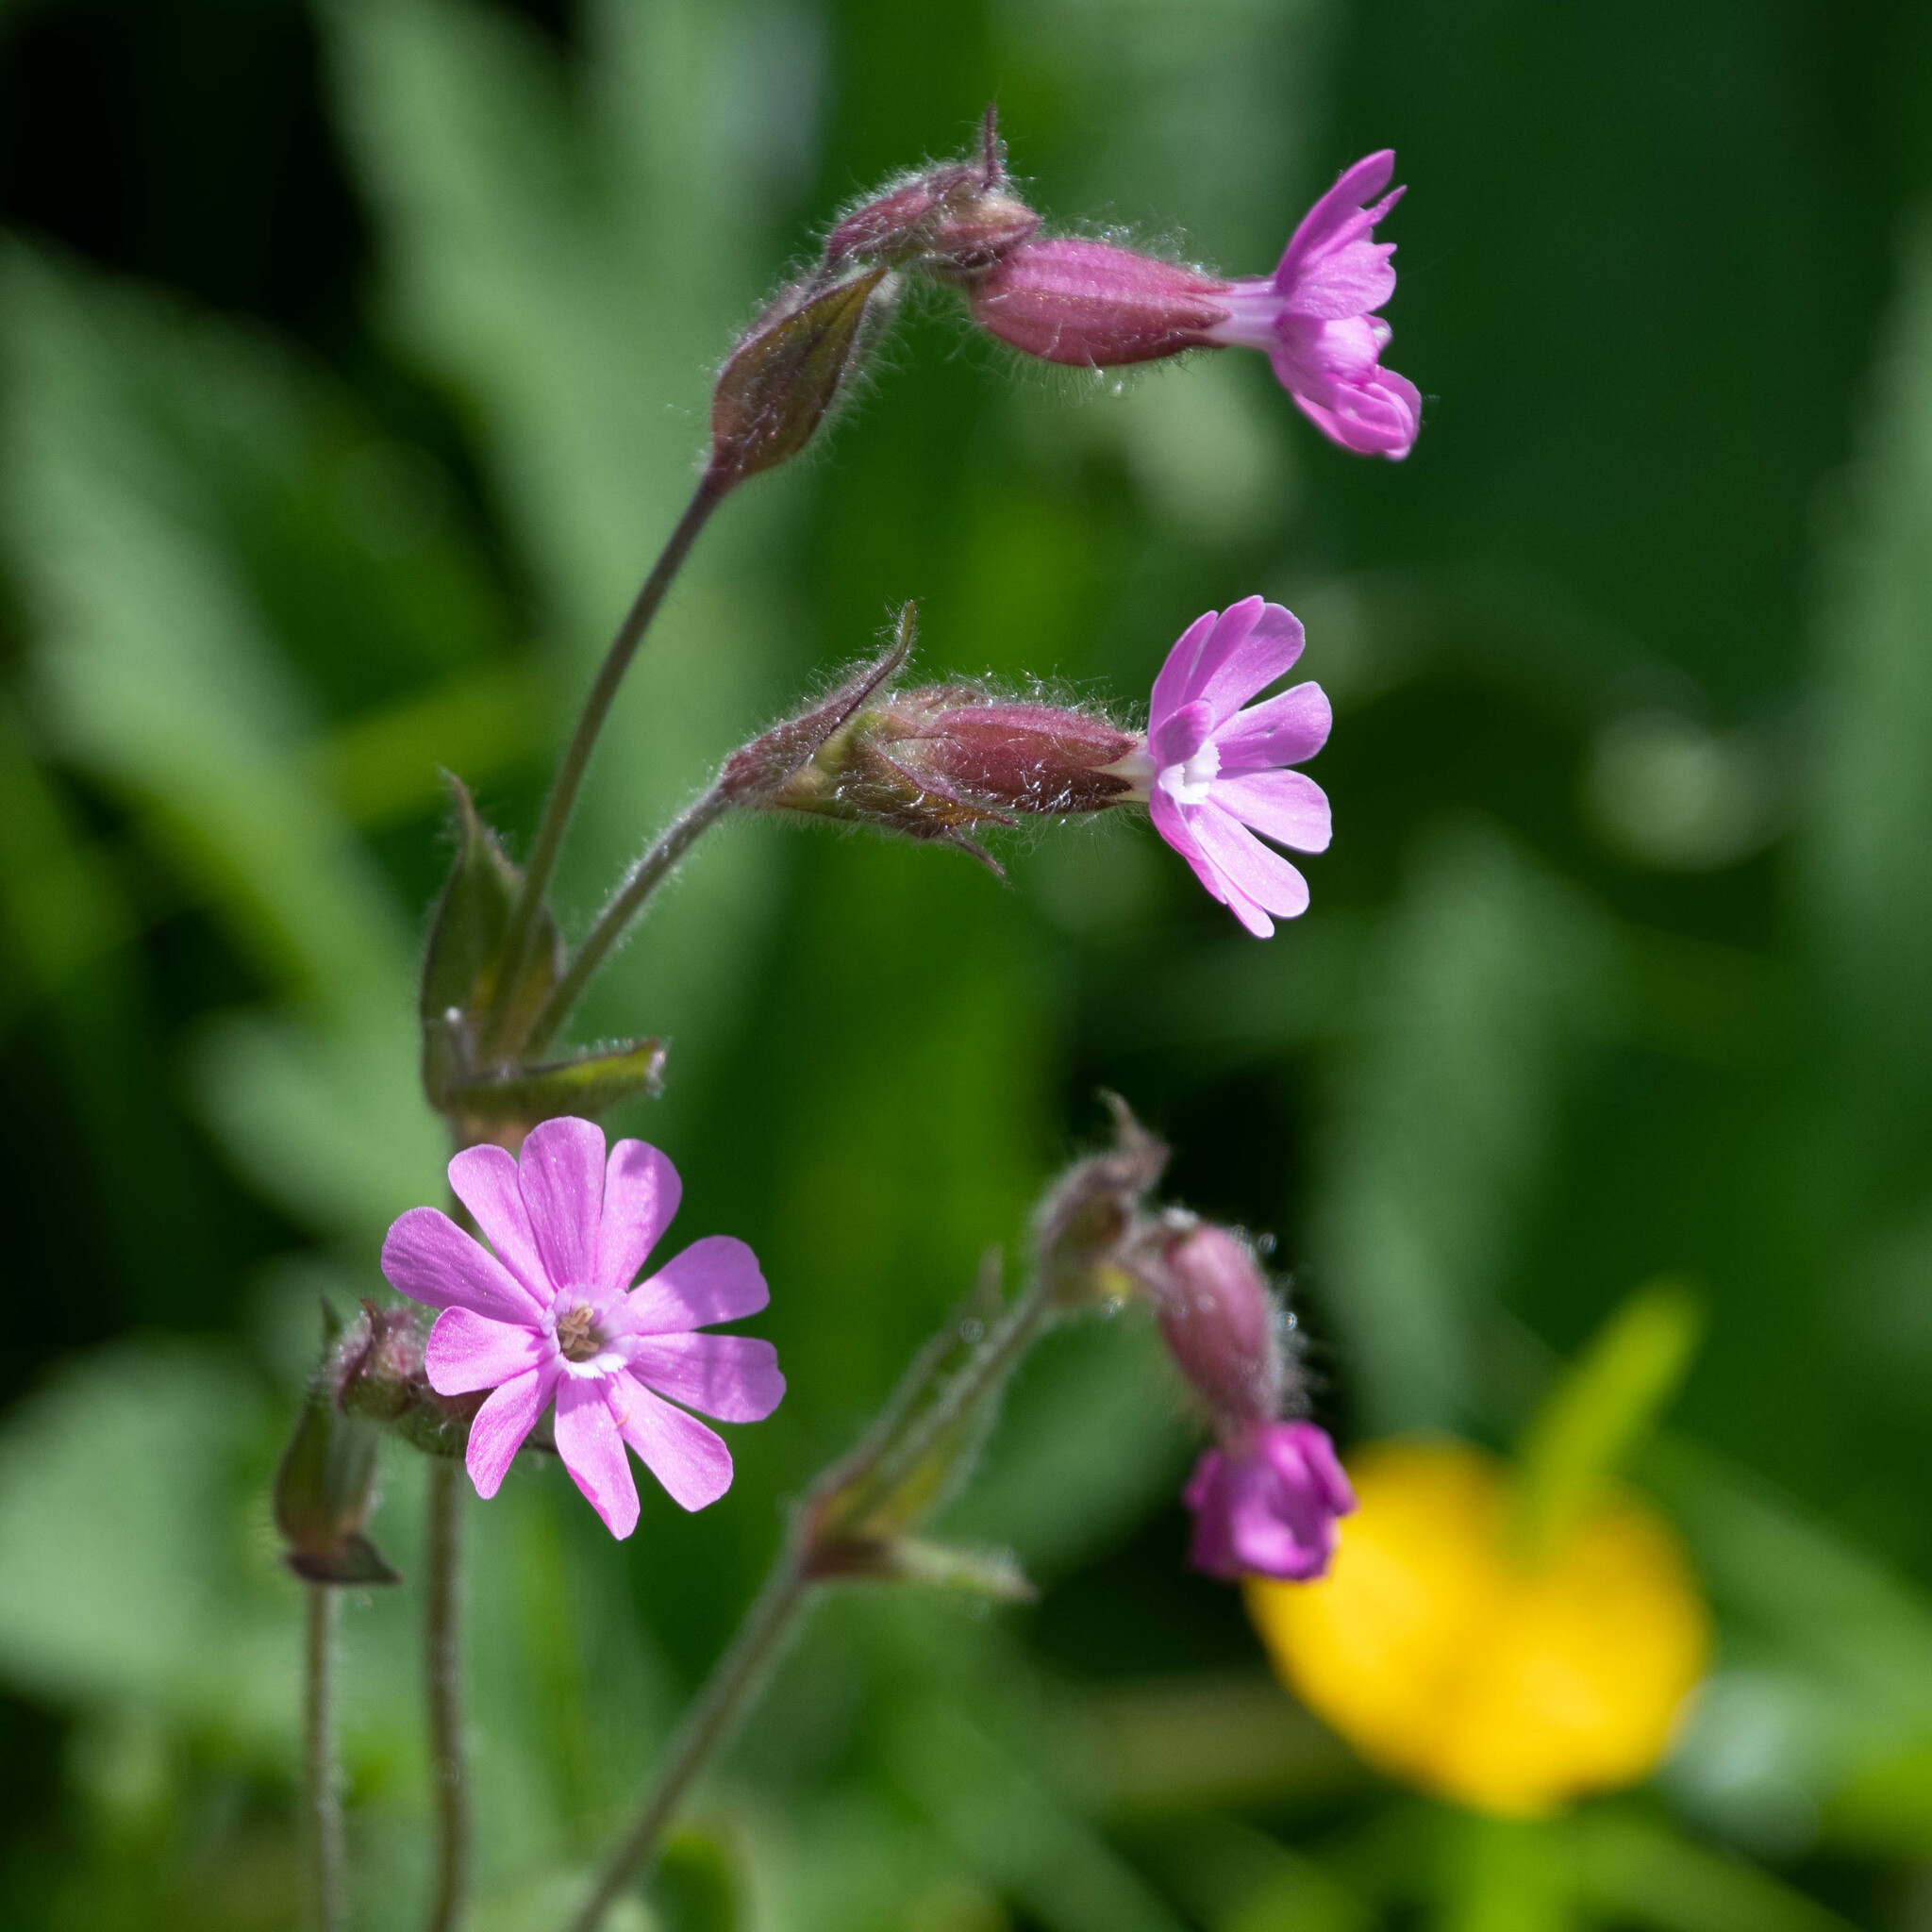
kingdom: Plantae
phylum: Tracheophyta
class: Magnoliopsida
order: Caryophyllales
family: Caryophyllaceae
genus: Silene
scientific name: Silene dioica
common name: Red campion
